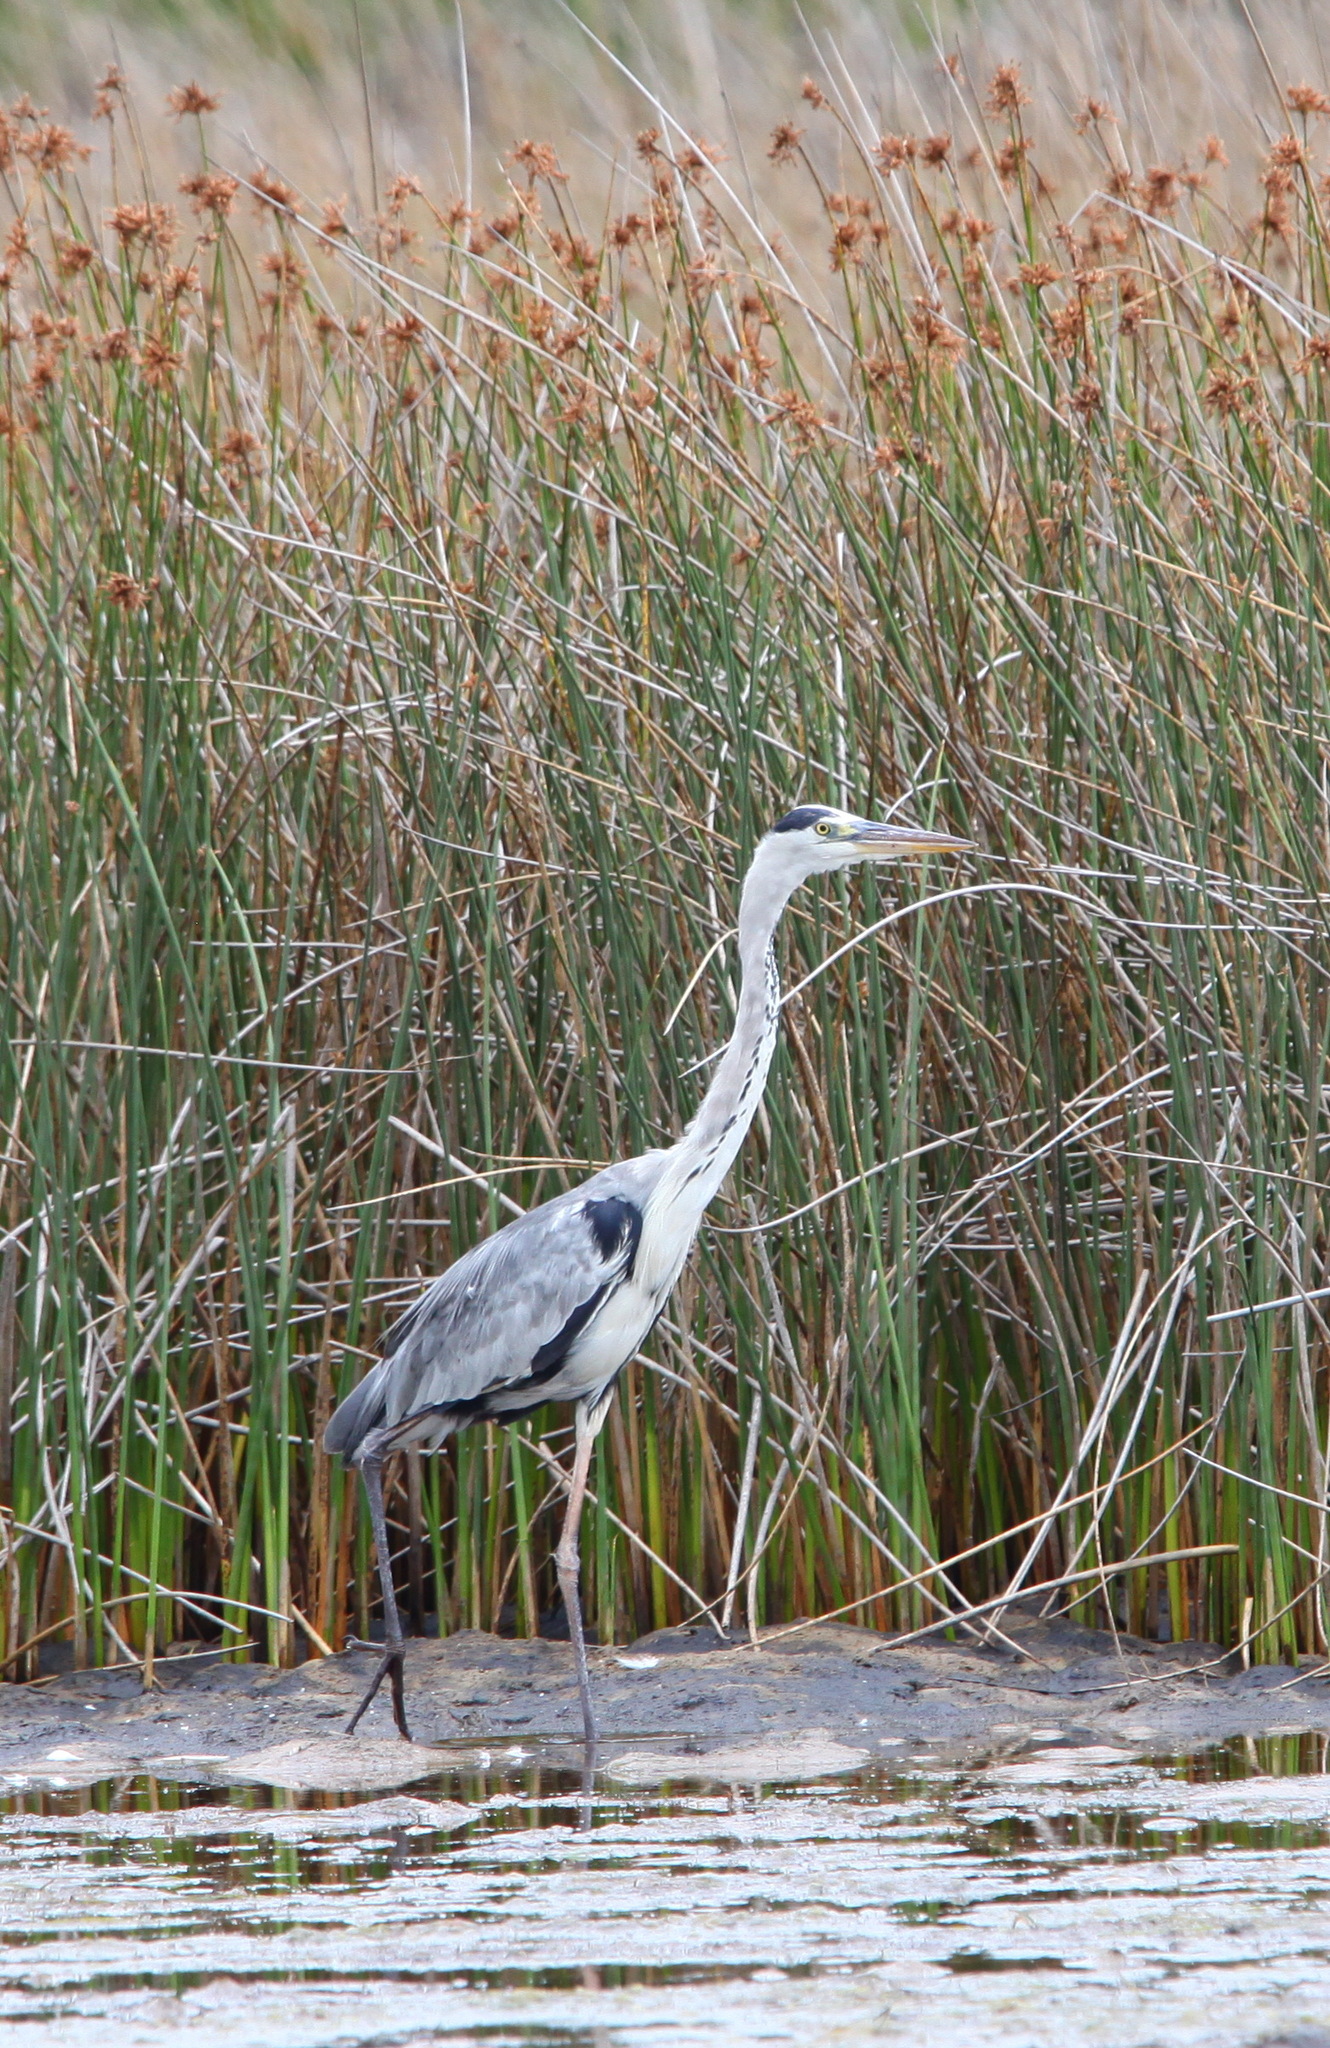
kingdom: Animalia
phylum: Chordata
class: Aves
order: Pelecaniformes
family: Ardeidae
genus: Ardea
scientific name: Ardea cinerea
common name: Grey heron
